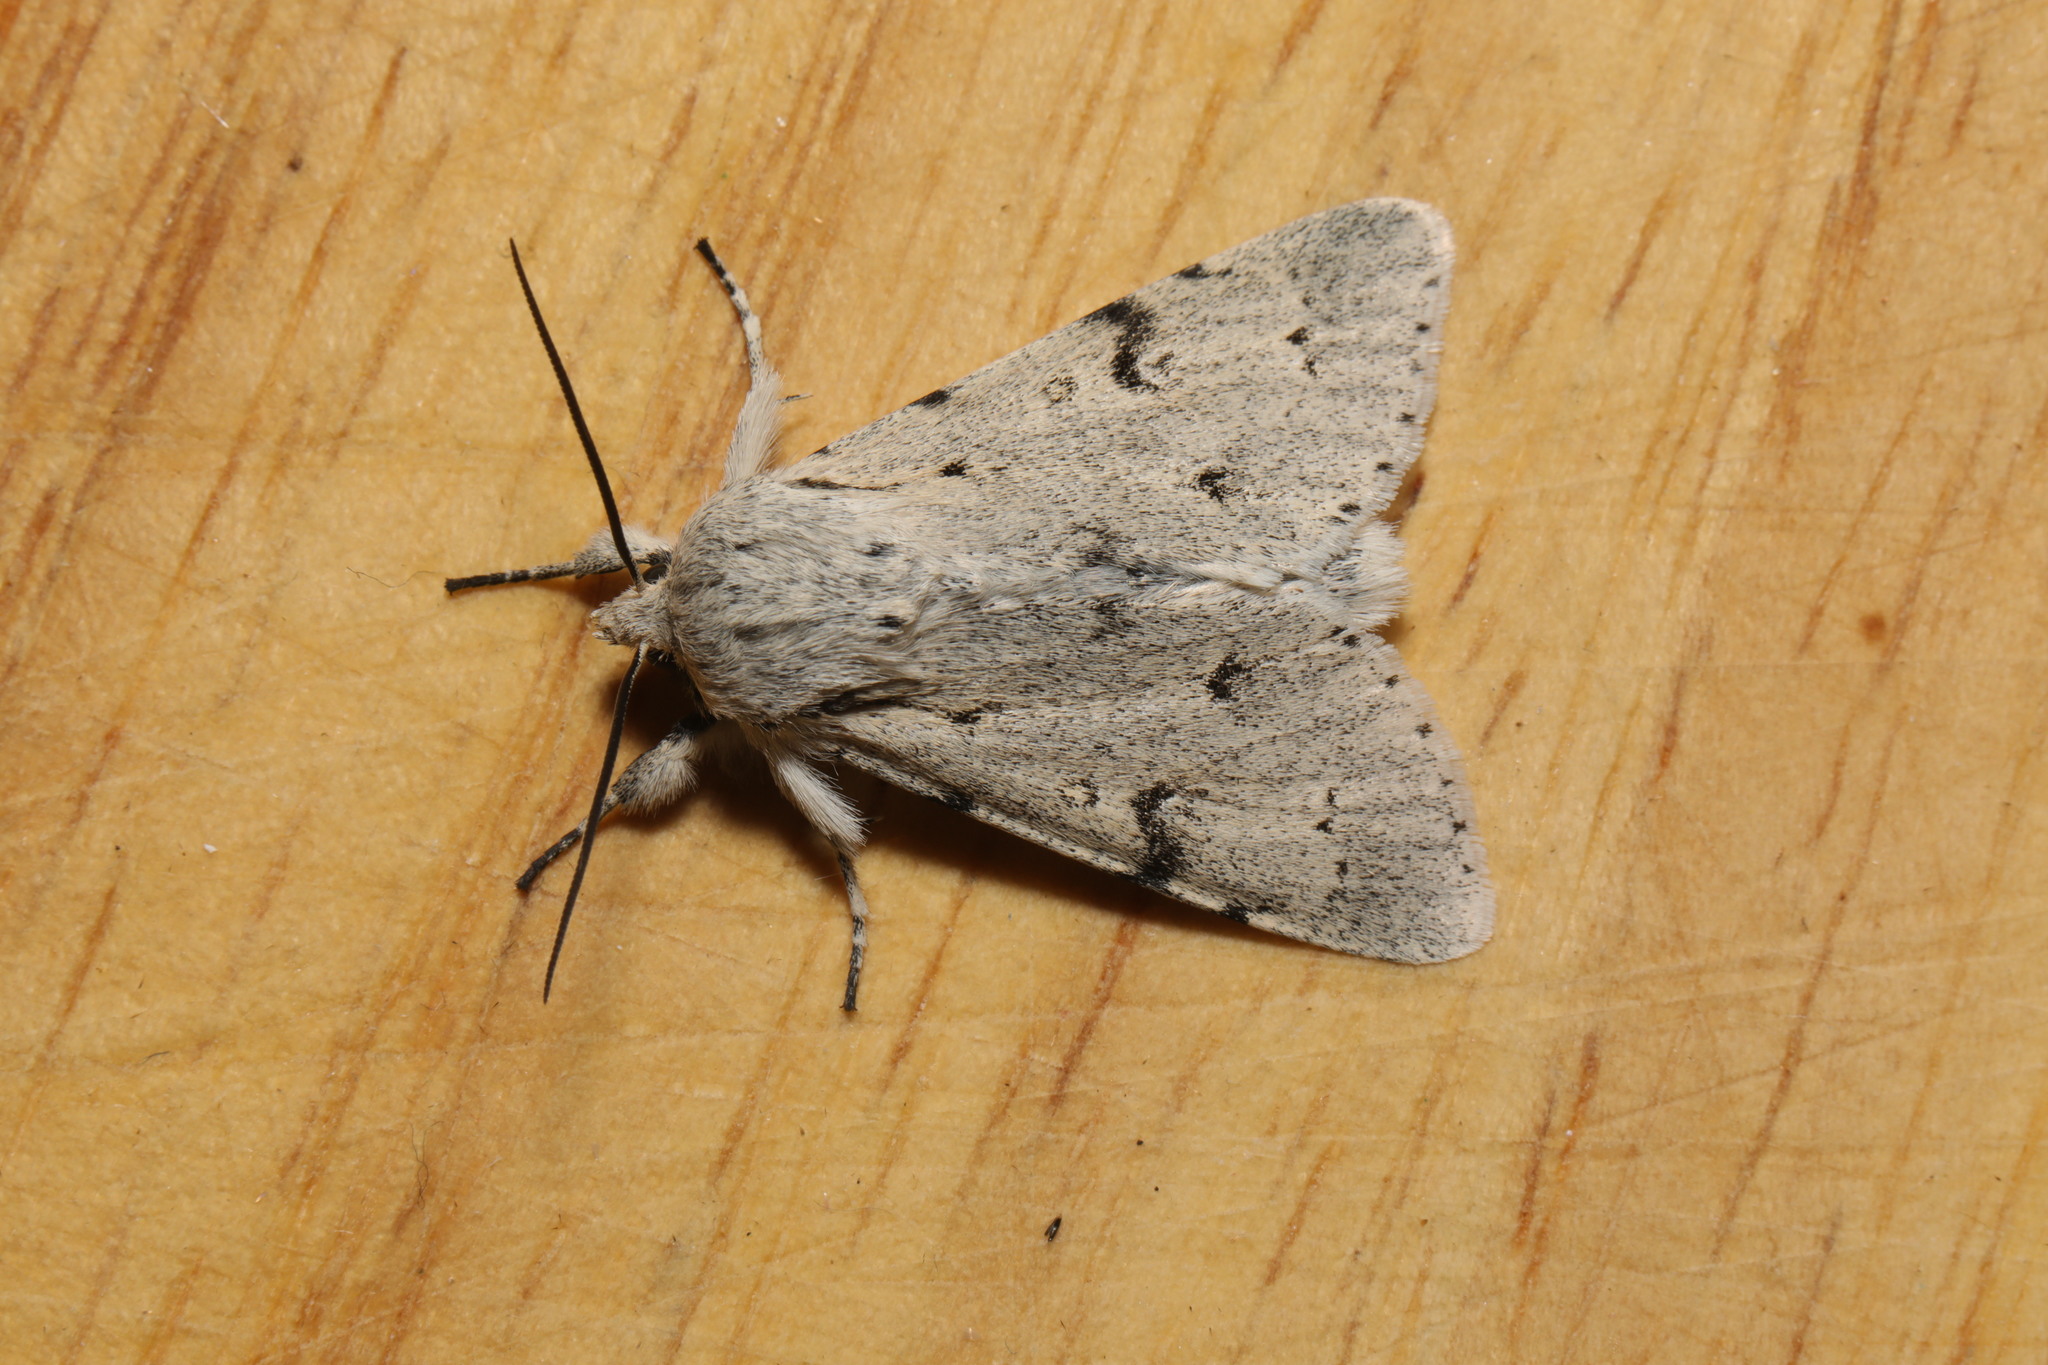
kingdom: Animalia
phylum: Arthropoda
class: Insecta
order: Lepidoptera
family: Noctuidae
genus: Acronicta
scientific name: Acronicta leporina
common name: Miller
